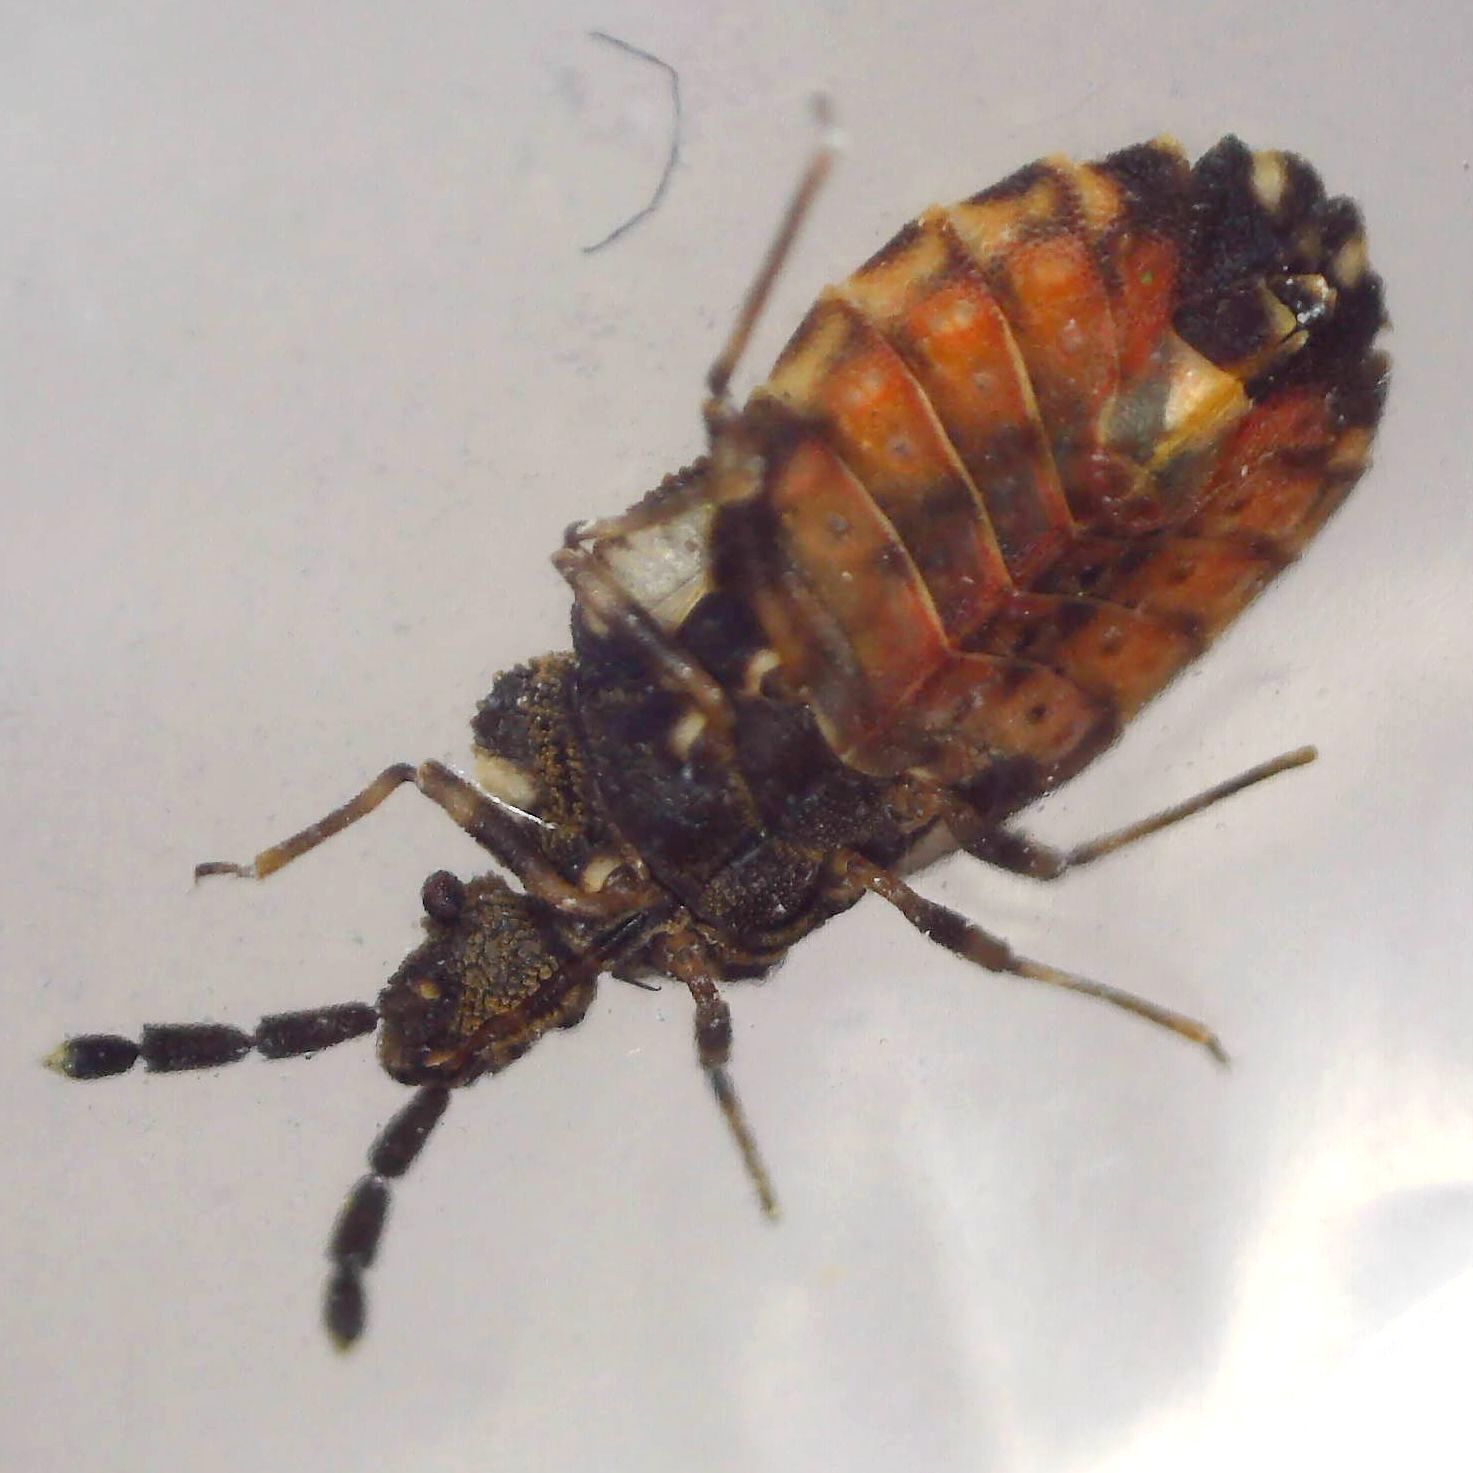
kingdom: Animalia
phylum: Arthropoda
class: Insecta
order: Hemiptera
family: Aradidae
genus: Aradus
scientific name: Aradus depressus
